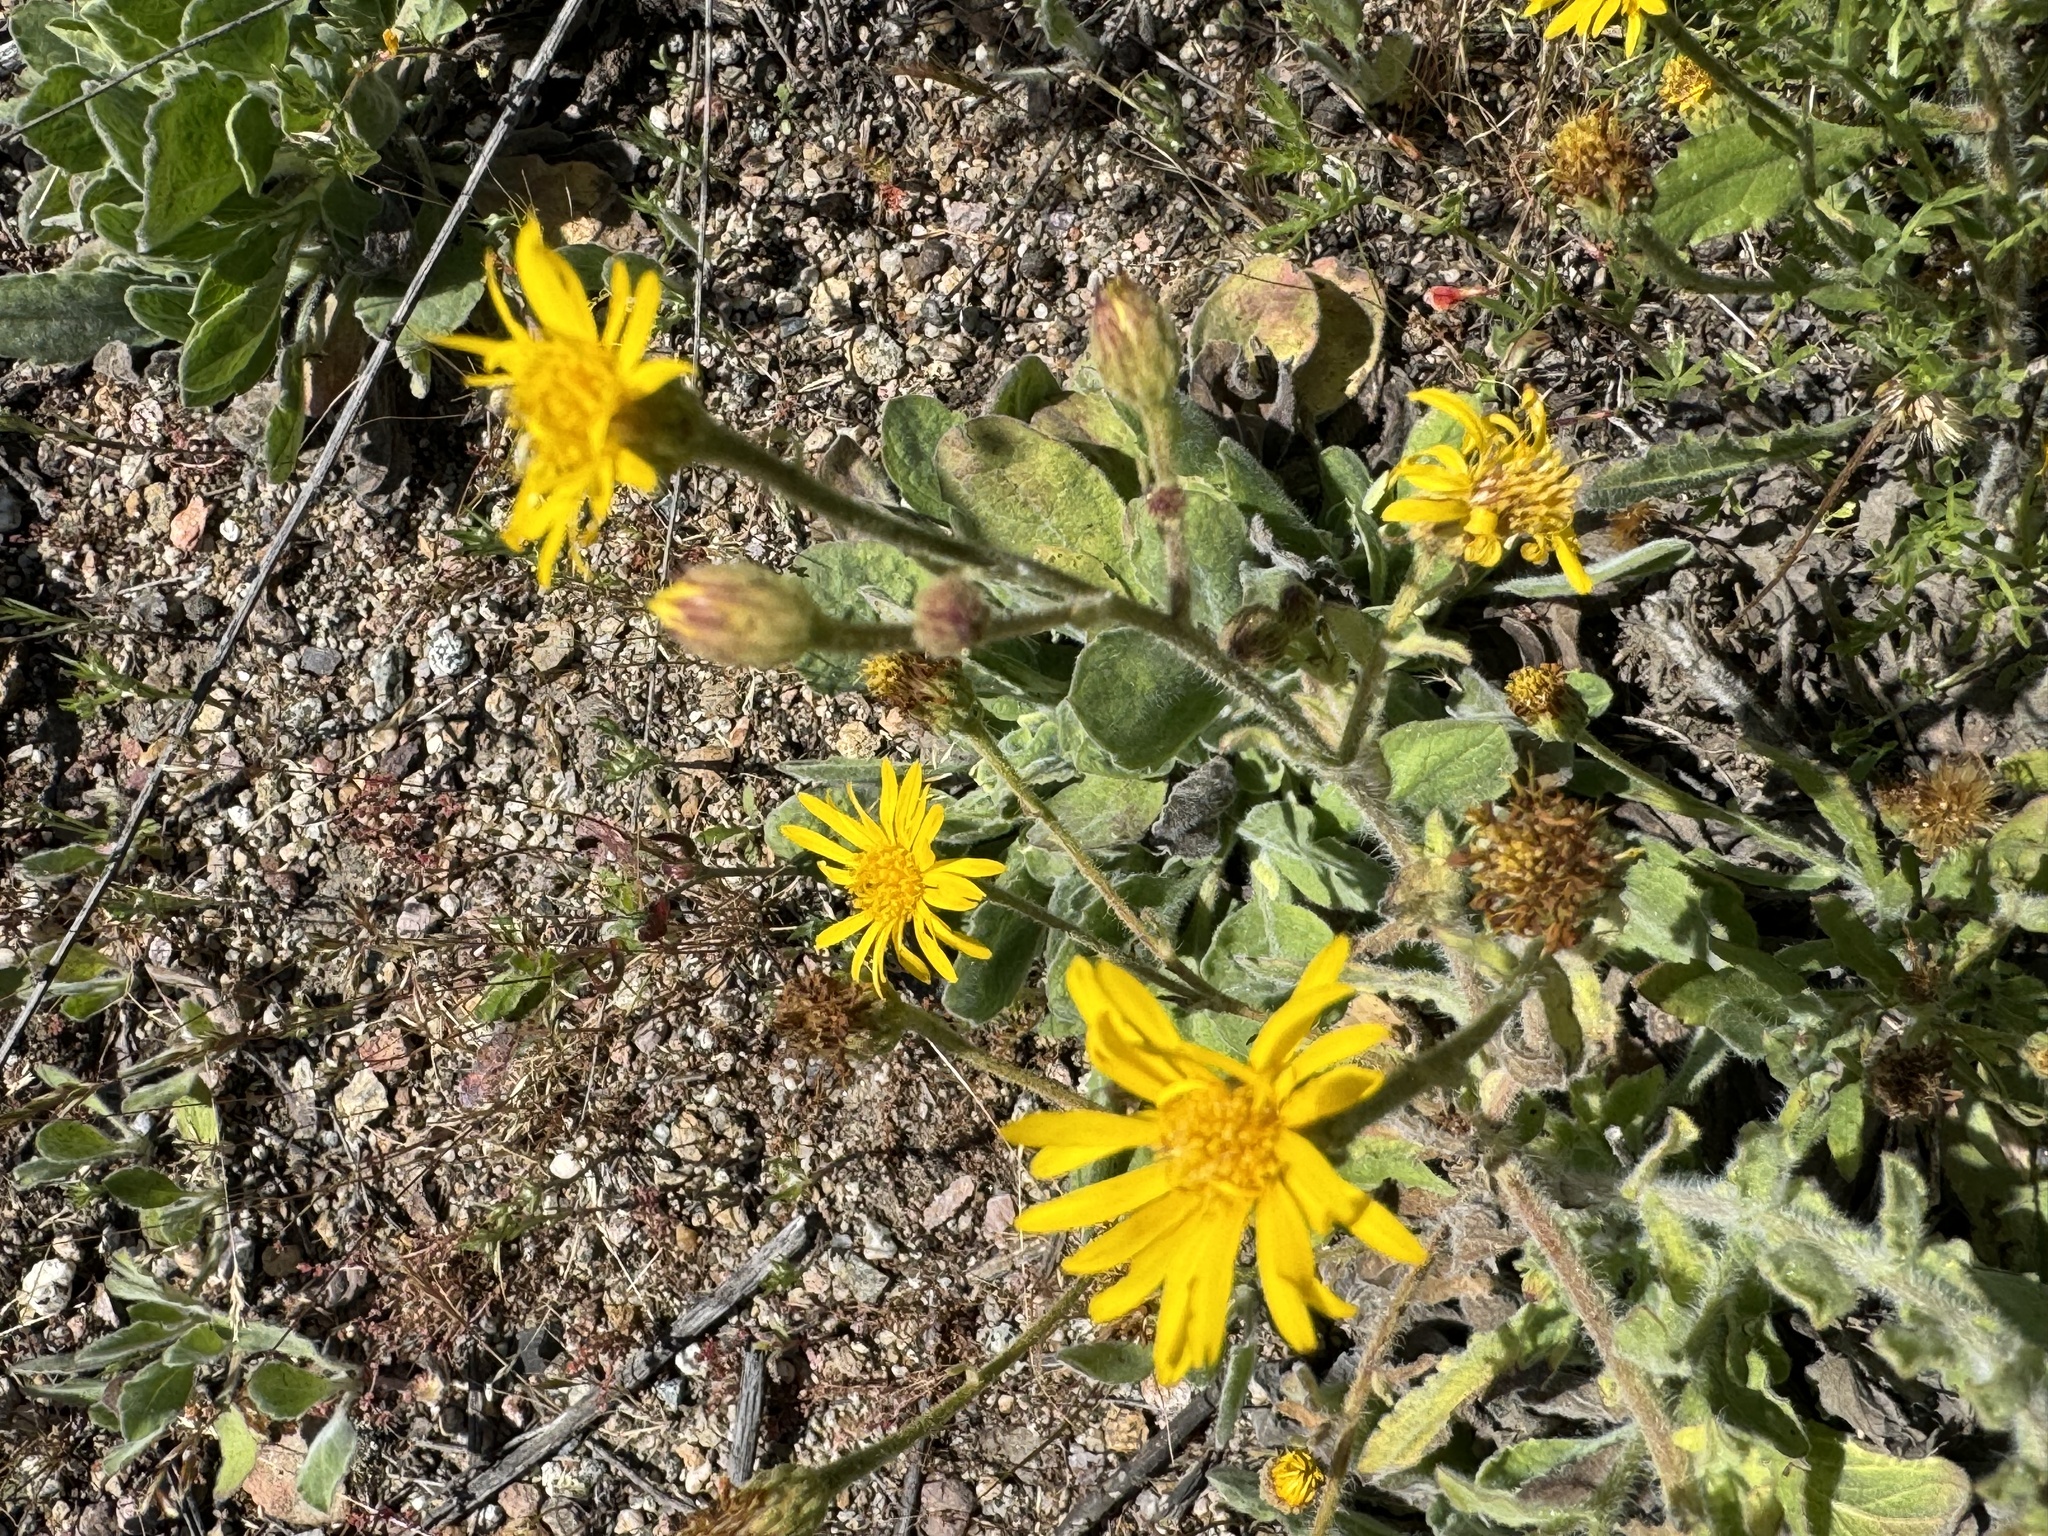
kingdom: Plantae
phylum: Tracheophyta
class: Magnoliopsida
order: Asterales
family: Asteraceae
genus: Heterotheca
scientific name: Heterotheca grandiflora
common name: Telegraphweed
